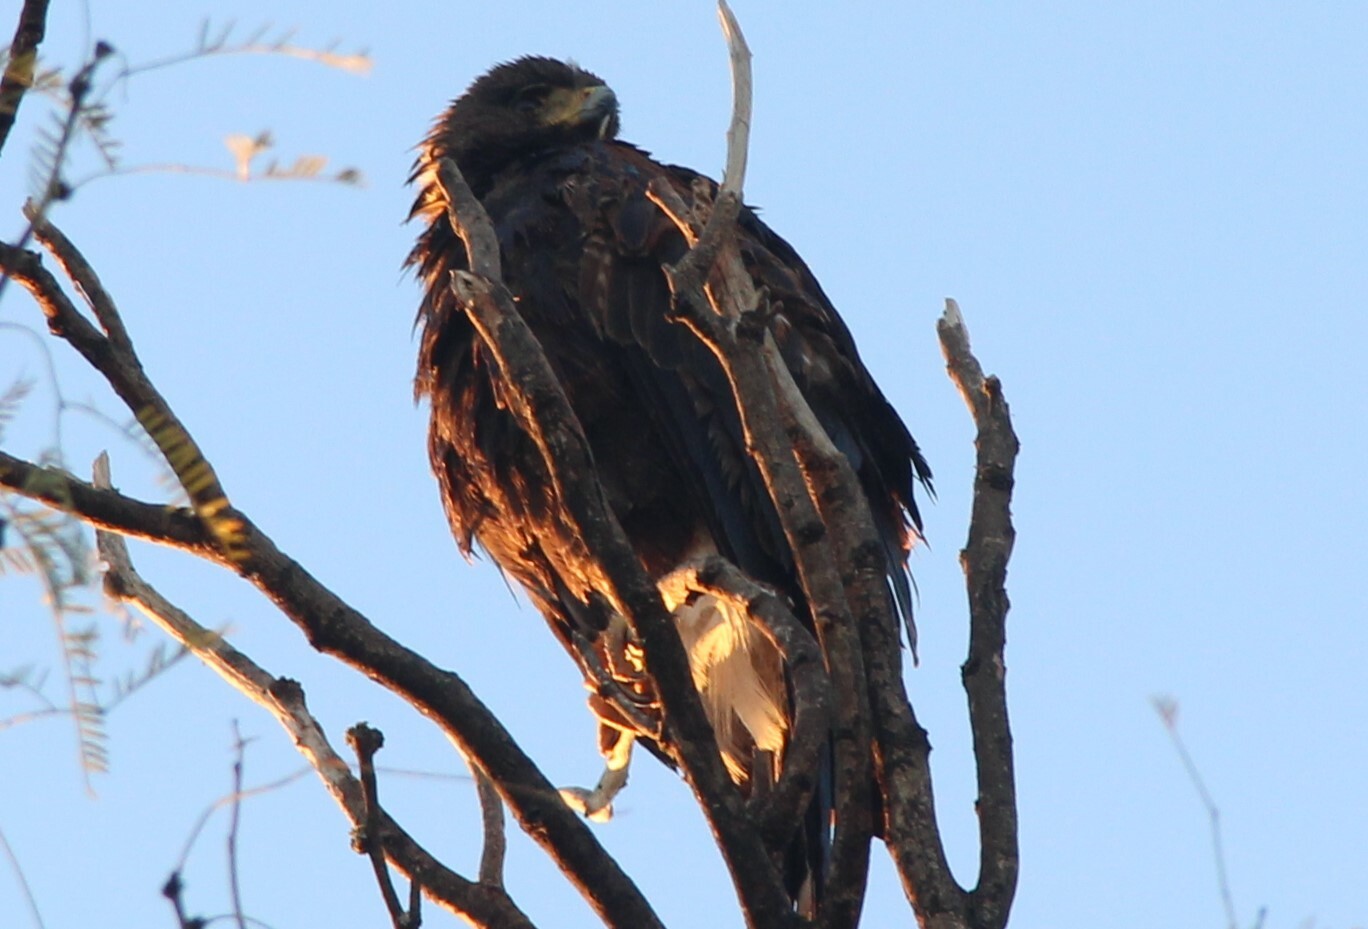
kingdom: Animalia
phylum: Chordata
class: Aves
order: Accipitriformes
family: Accipitridae
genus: Parabuteo
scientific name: Parabuteo unicinctus
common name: Harris's hawk
